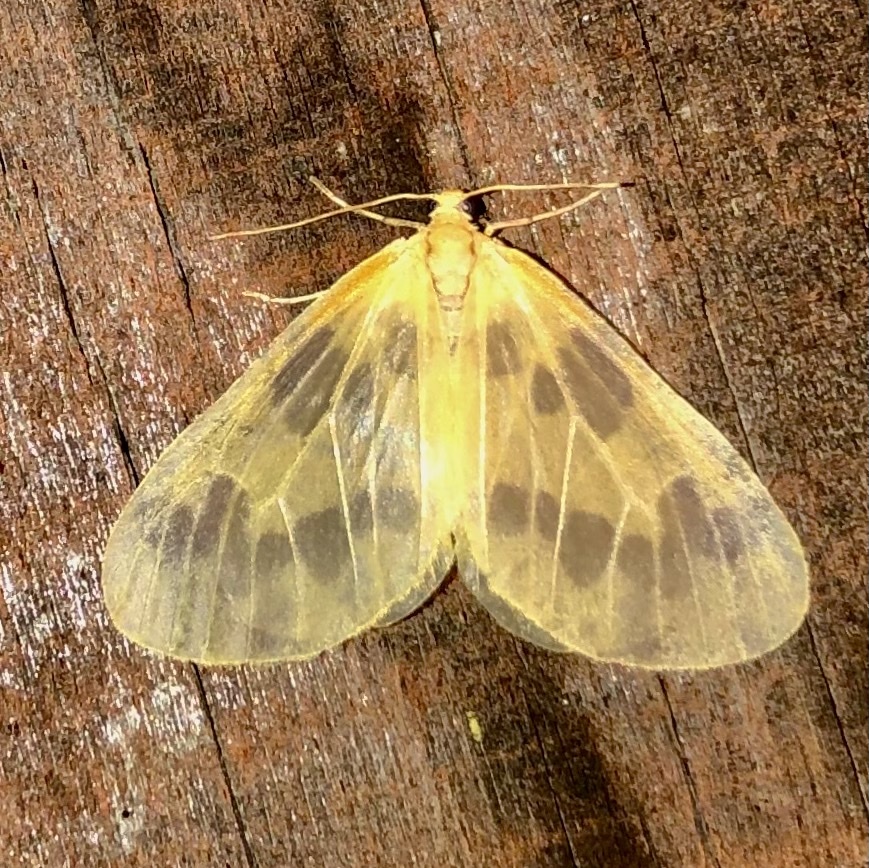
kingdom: Animalia
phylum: Arthropoda
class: Insecta
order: Lepidoptera
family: Geometridae
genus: Eubaphe
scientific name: Eubaphe mendica
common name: Beggar
